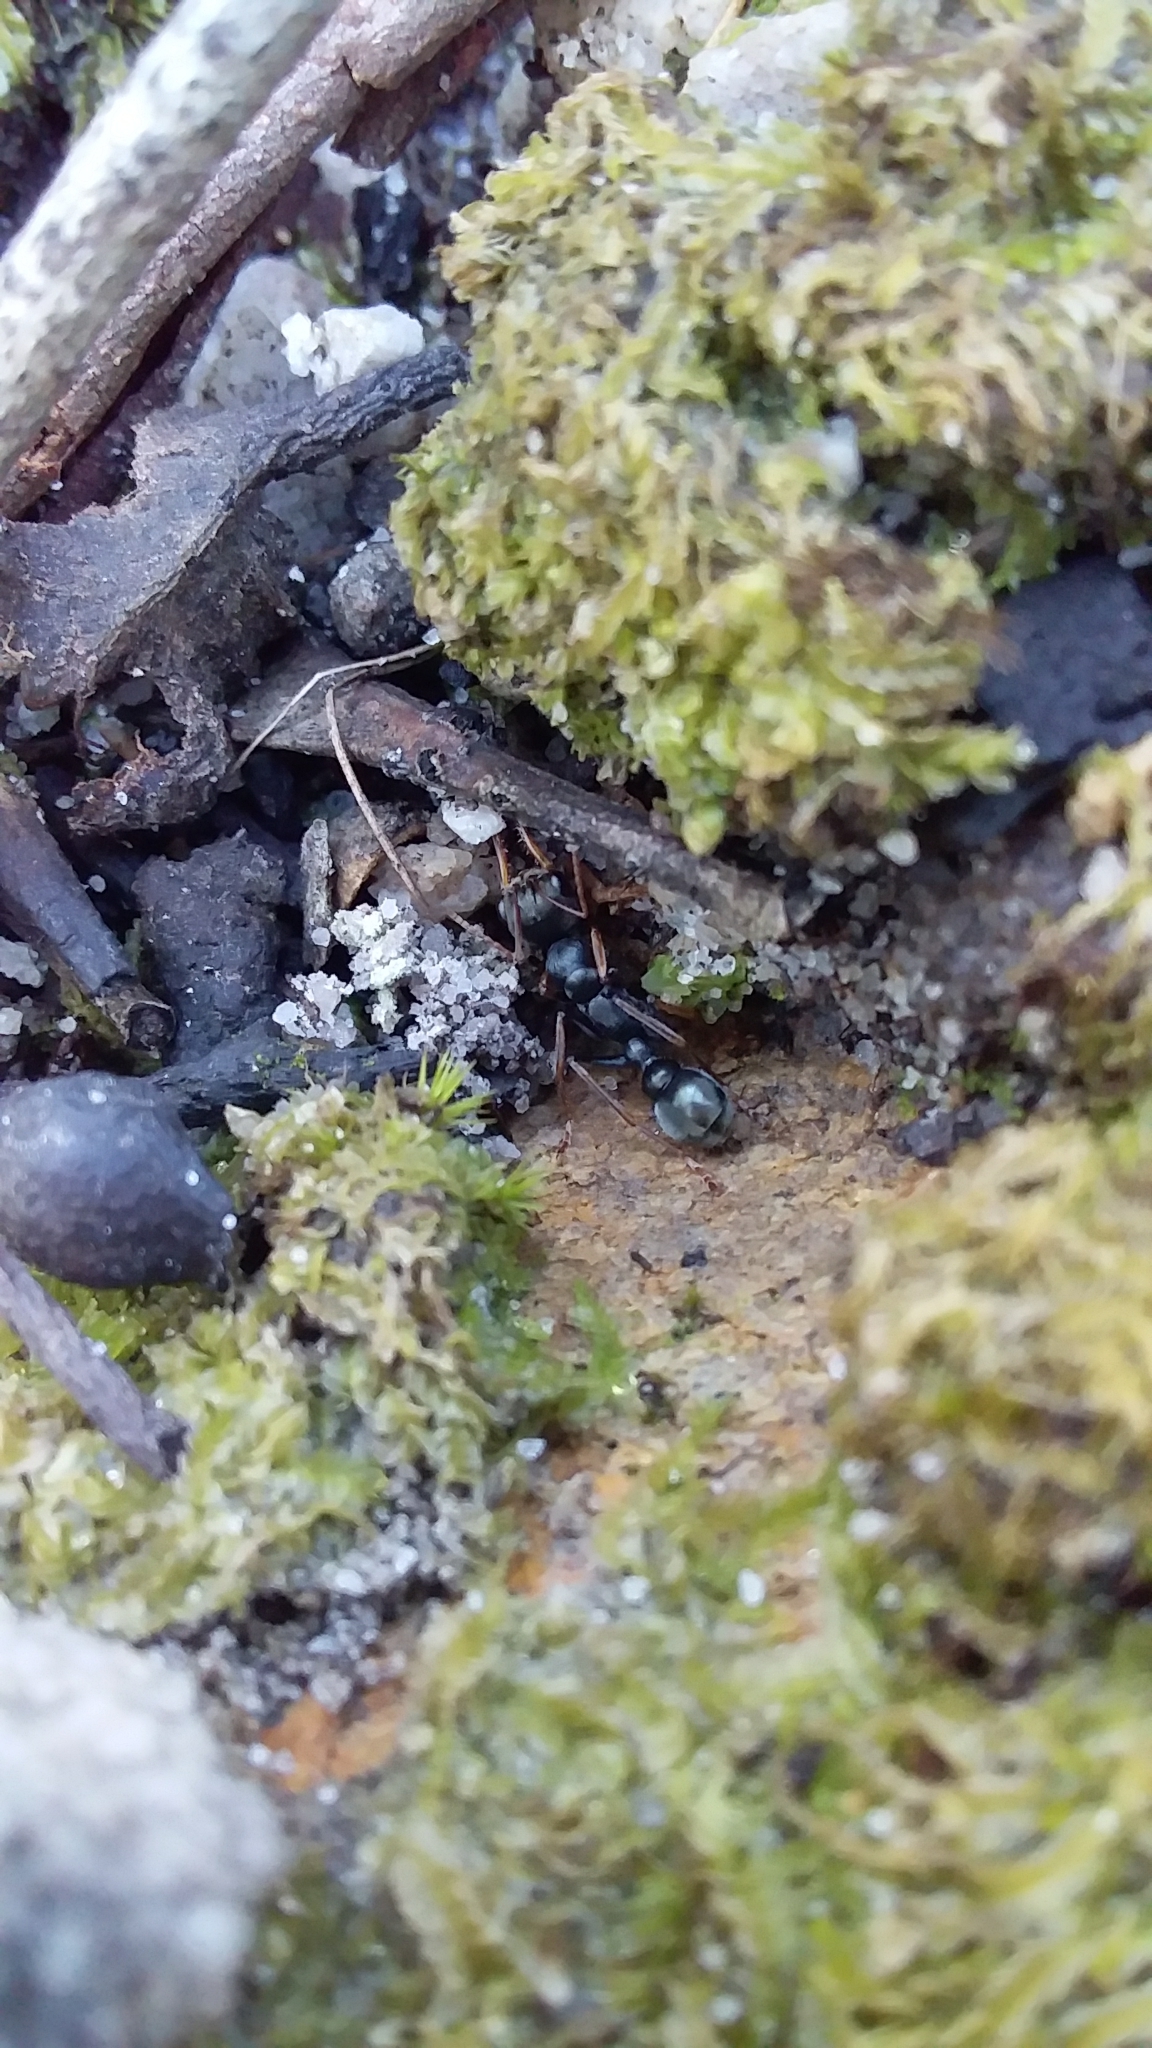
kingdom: Animalia
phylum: Arthropoda
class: Insecta
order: Hymenoptera
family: Formicidae
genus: Myrmecia
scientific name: Myrmecia pilosula
